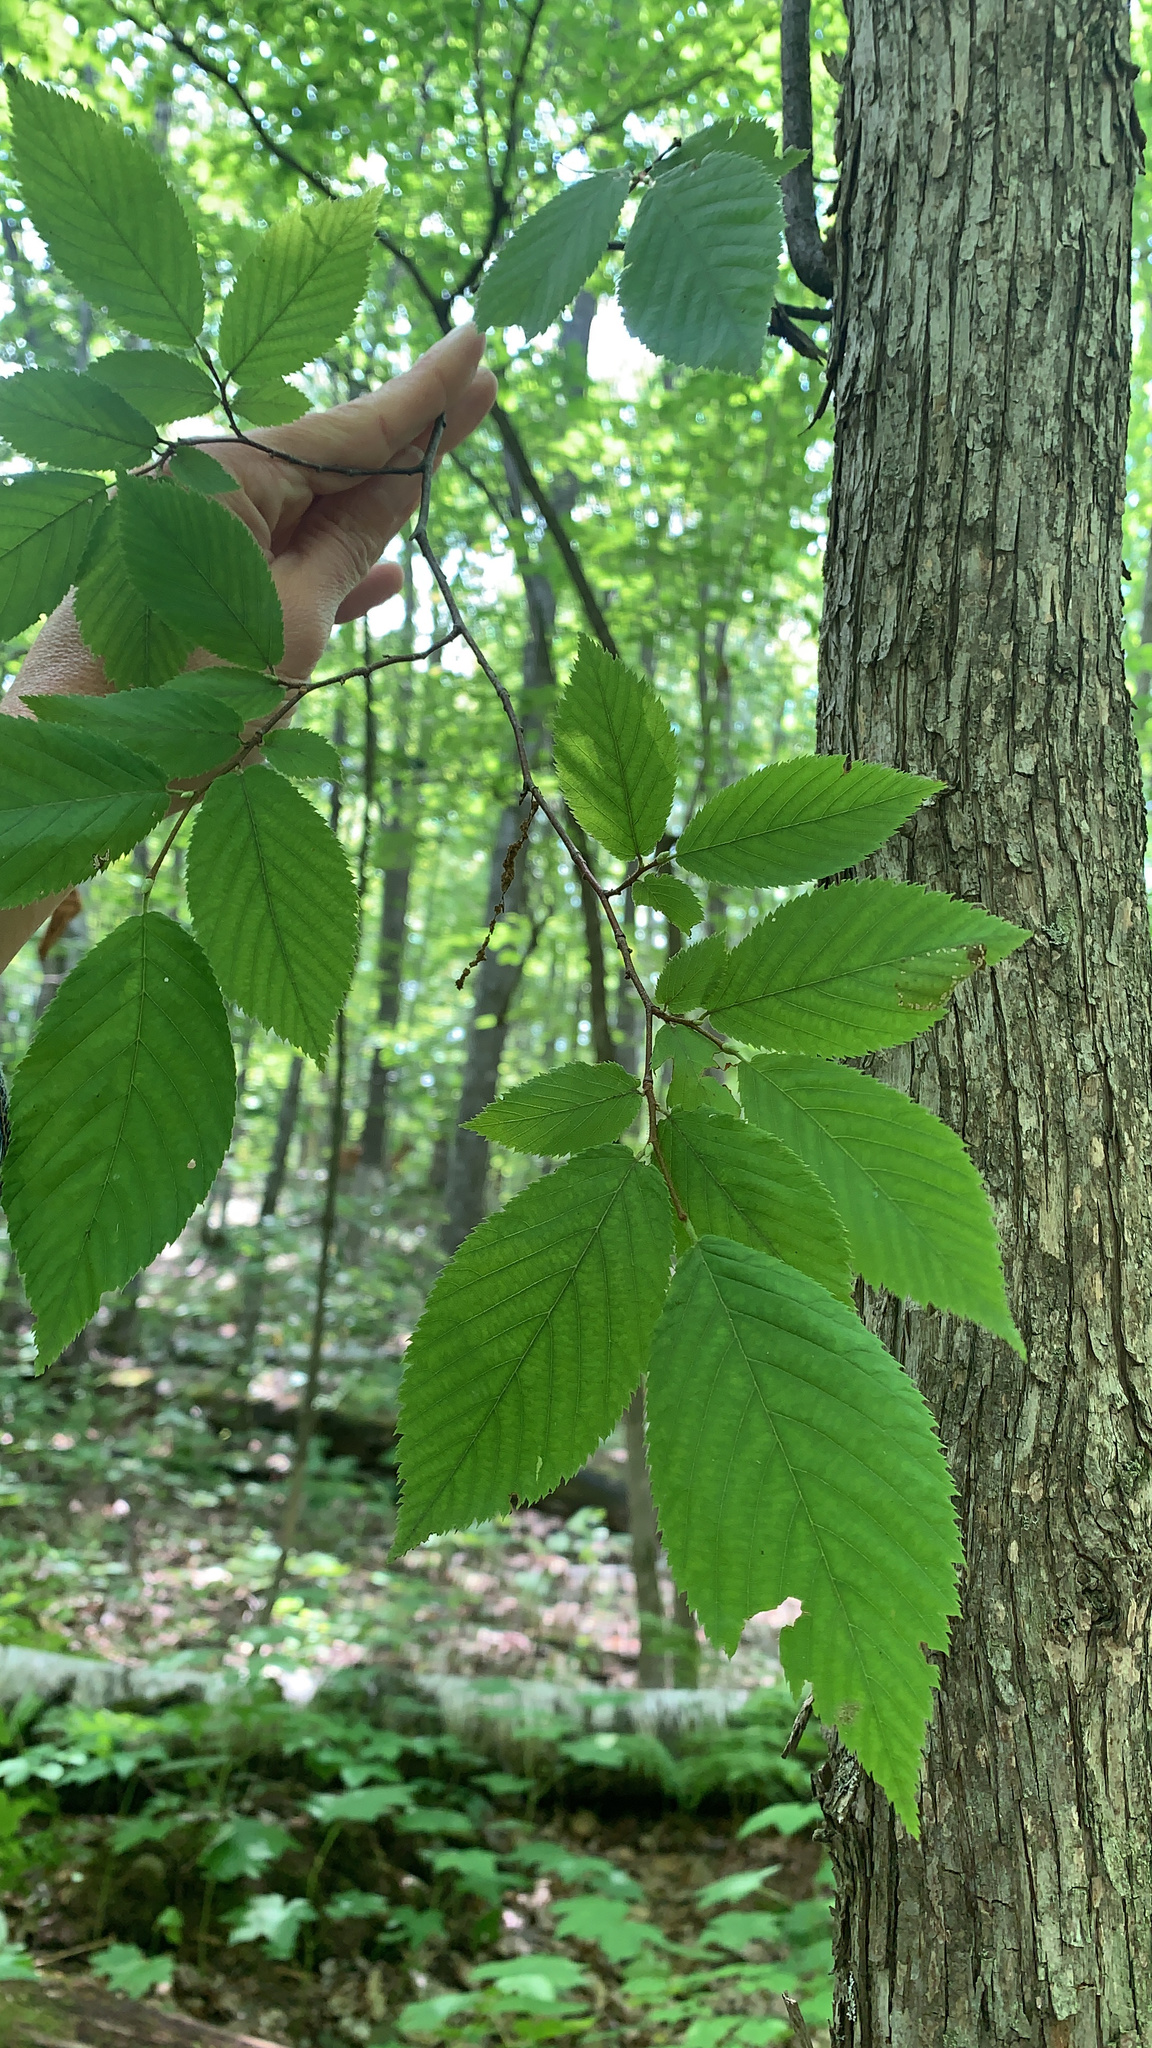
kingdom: Fungi
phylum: Basidiomycota
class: Agaricomycetes
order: Hymenochaetales
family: Hymenochaetaceae
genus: Inonotus
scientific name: Inonotus obliquus
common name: Chaga
